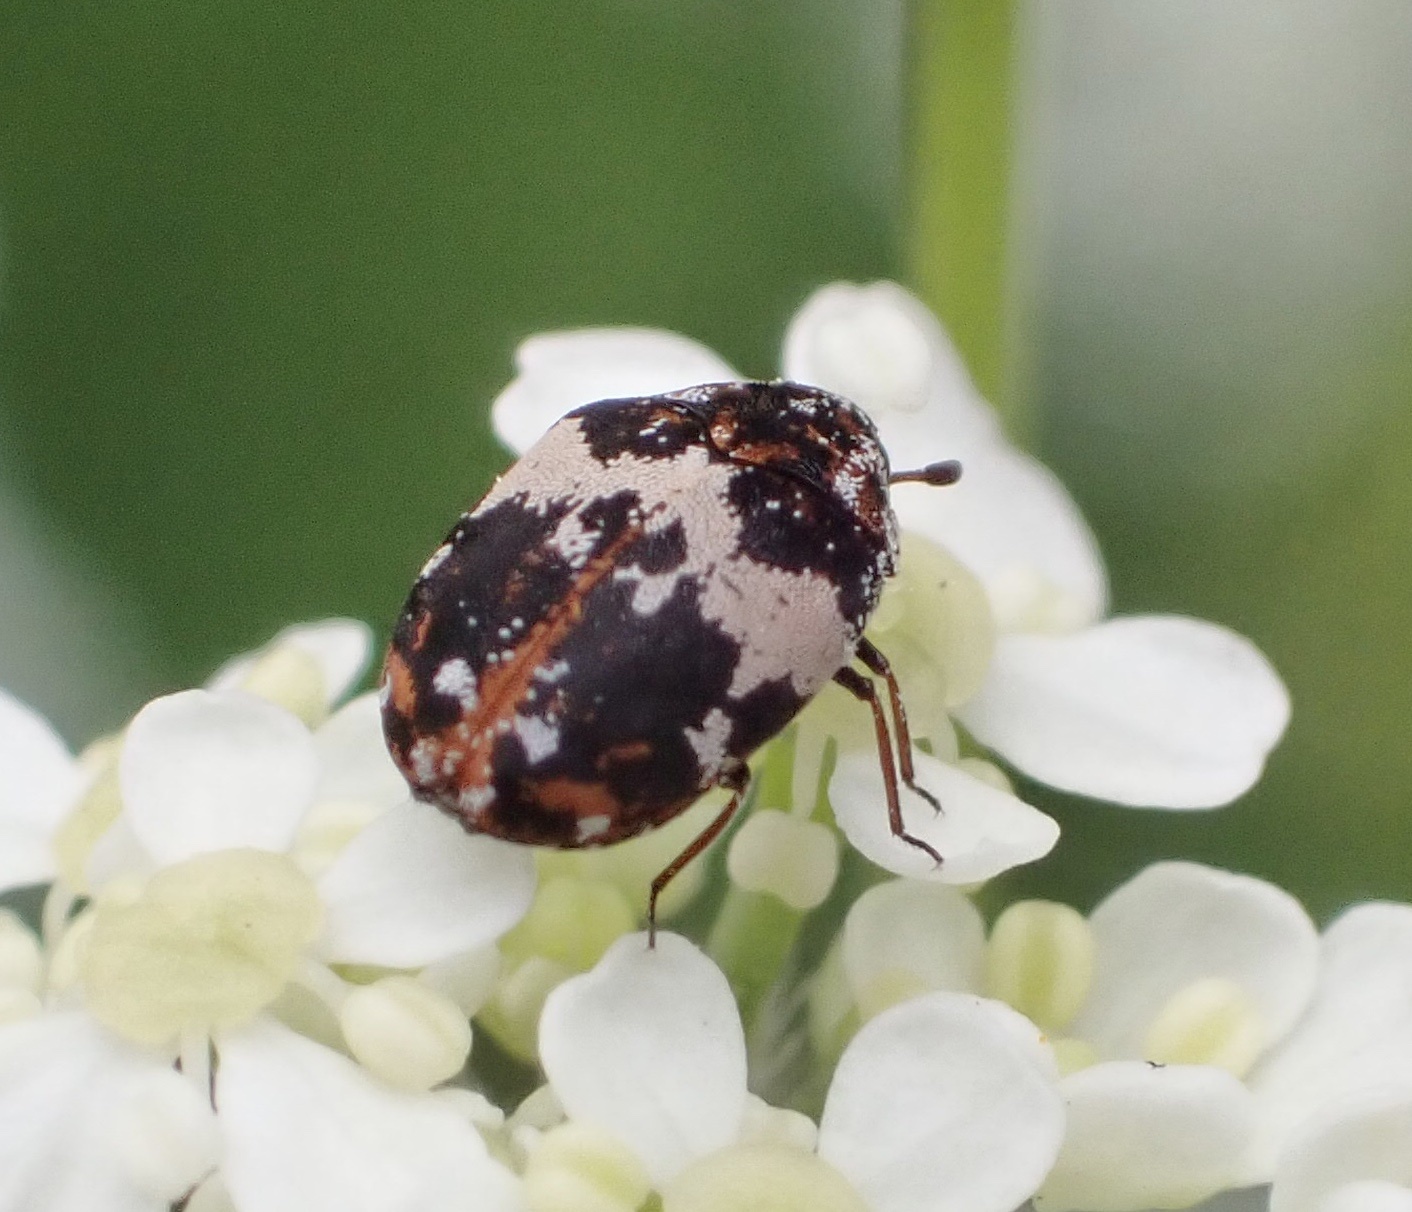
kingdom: Animalia
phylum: Arthropoda
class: Insecta
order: Coleoptera
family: Dermestidae
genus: Anthrenus
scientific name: Anthrenus pimpinellae
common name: Dermestid beetle
